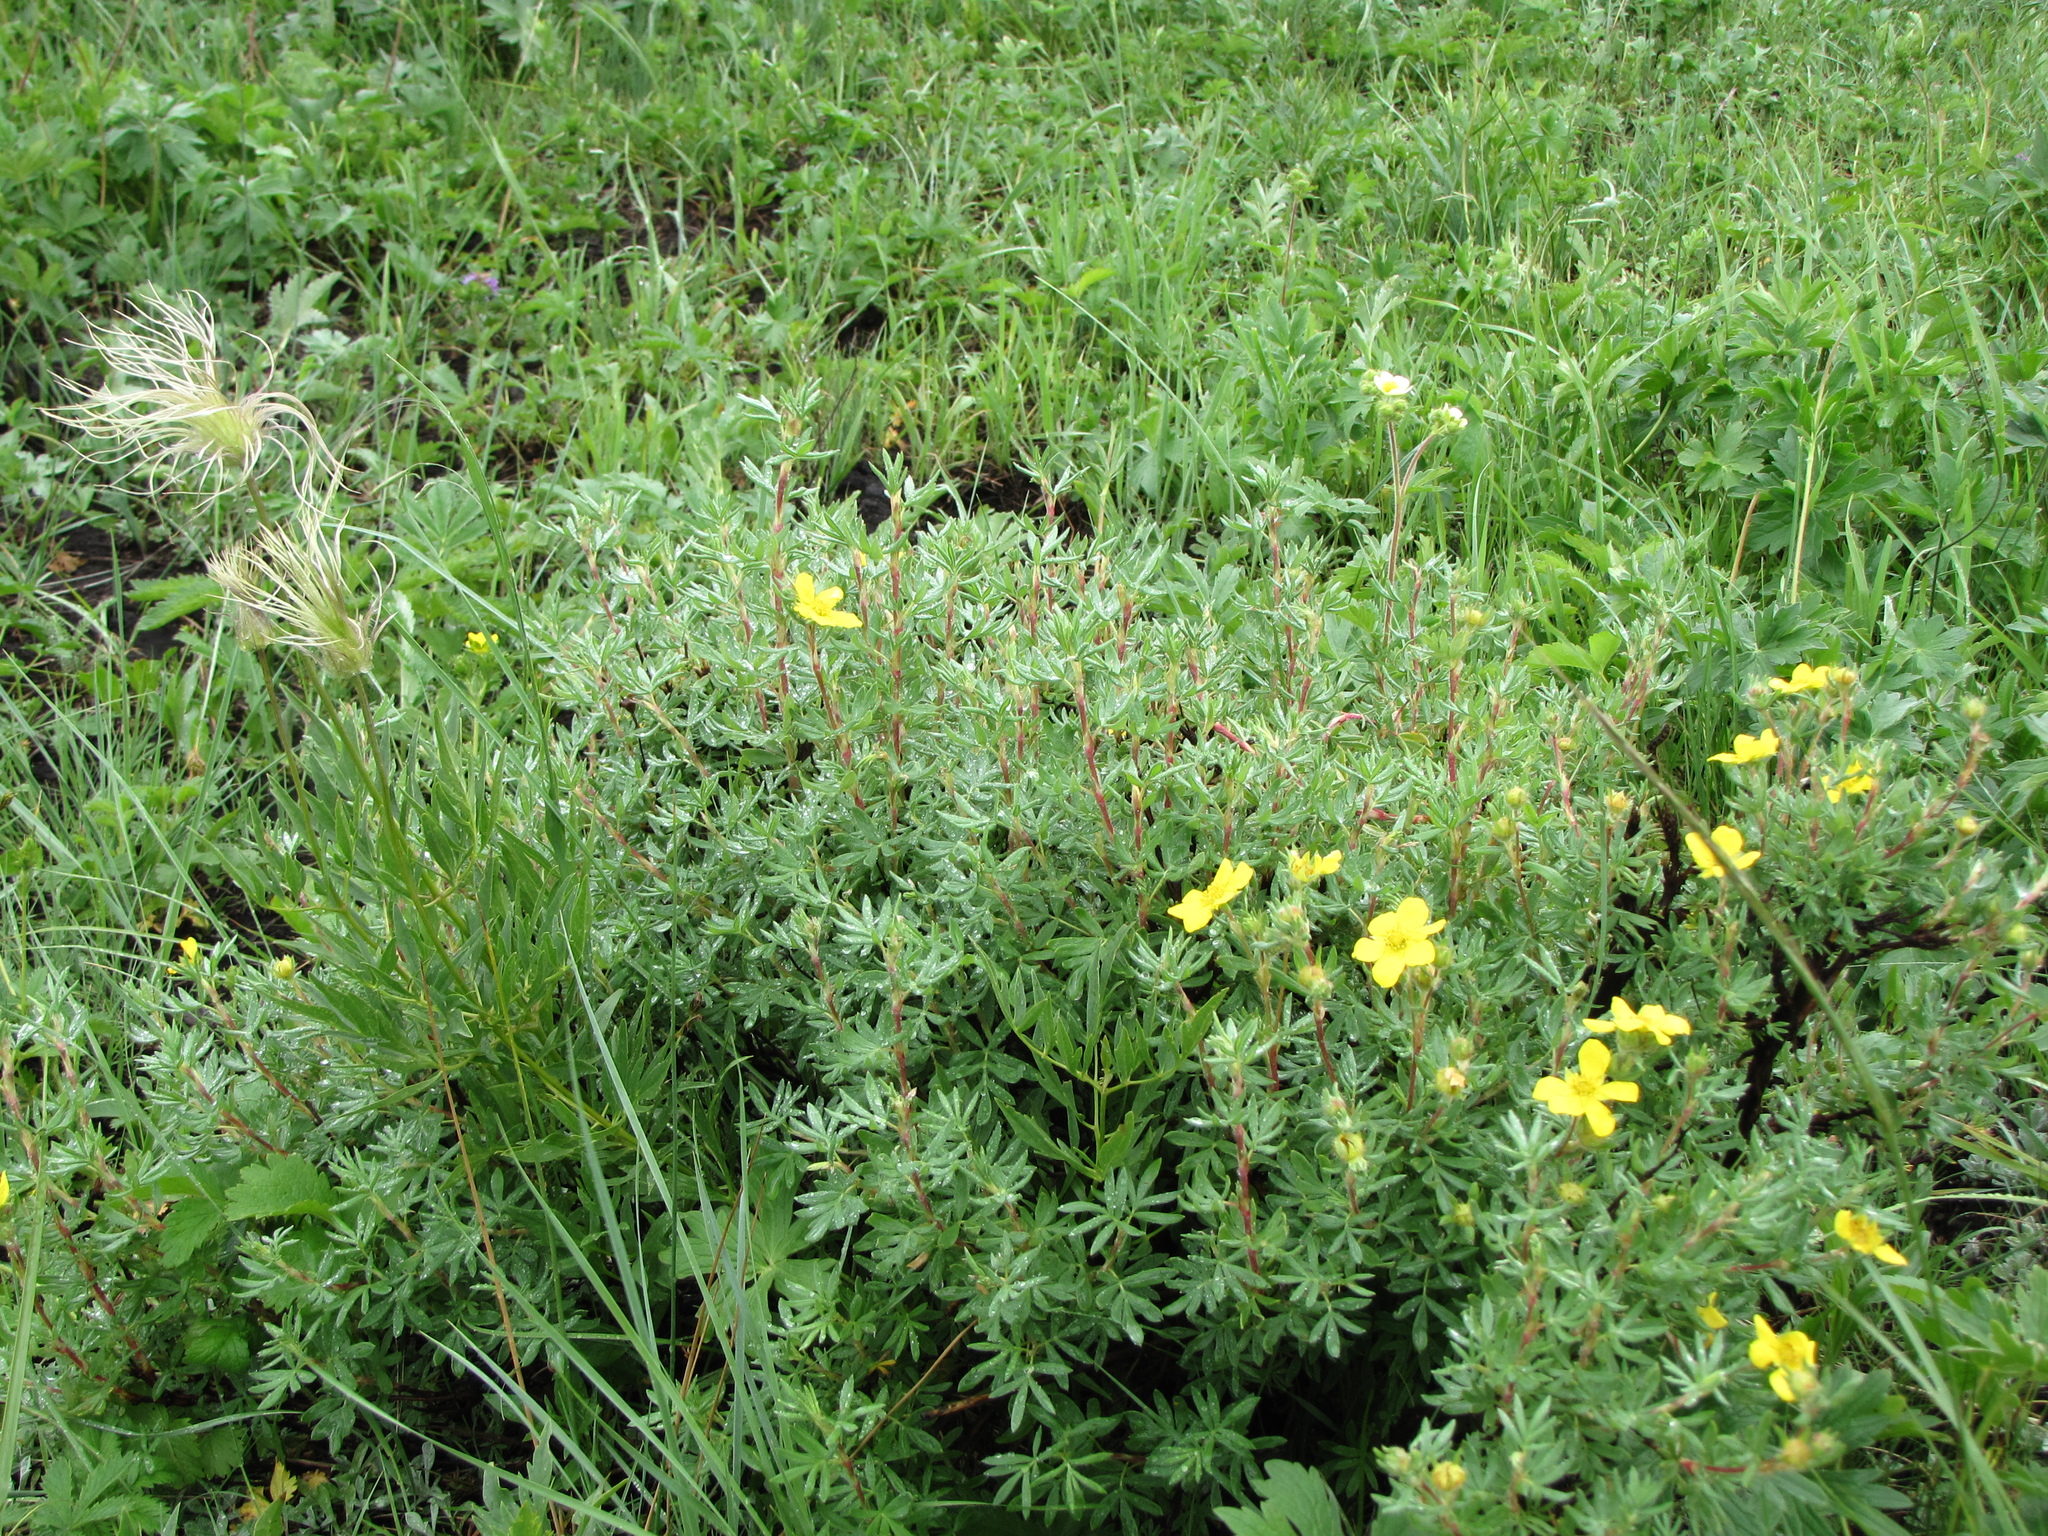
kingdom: Plantae
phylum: Tracheophyta
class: Magnoliopsida
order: Rosales
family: Rosaceae
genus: Dasiphora
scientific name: Dasiphora fruticosa
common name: Shrubby cinquefoil
